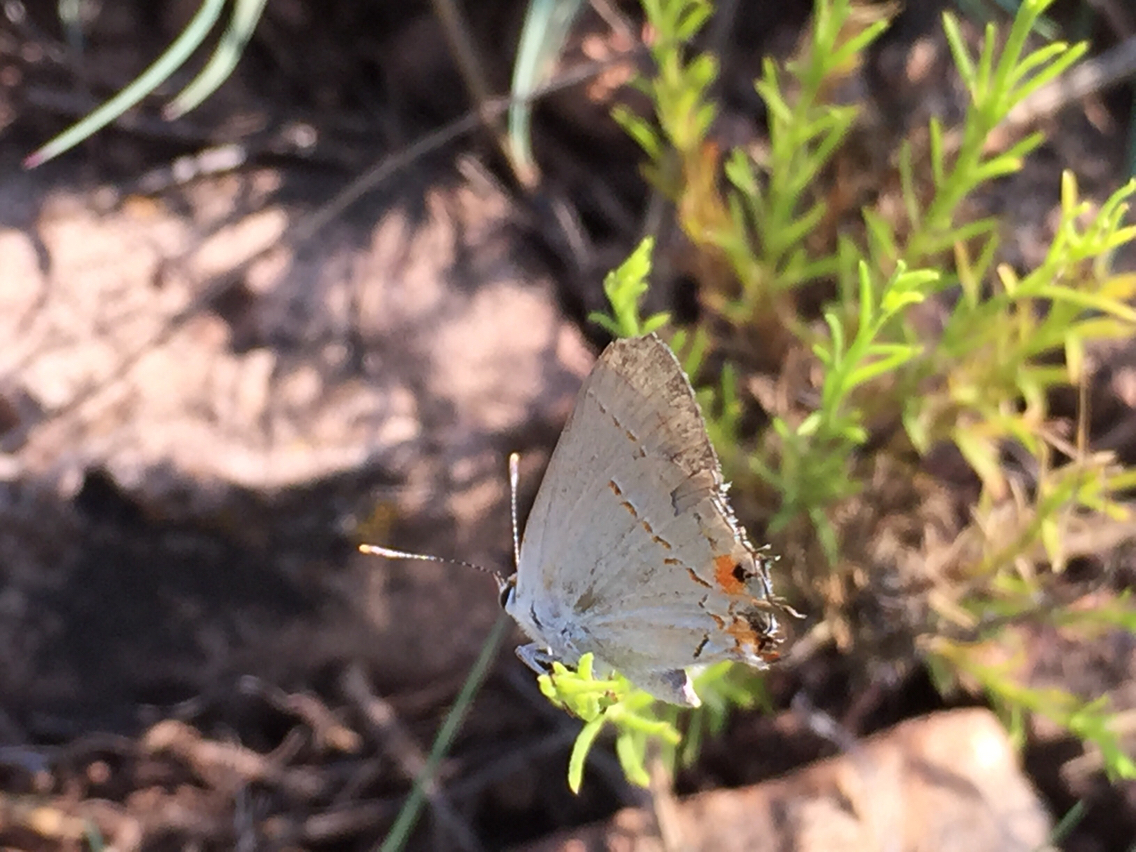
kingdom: Animalia
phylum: Arthropoda
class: Insecta
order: Lepidoptera
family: Lycaenidae
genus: Strymon
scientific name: Strymon melinus
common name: Gray hairstreak
